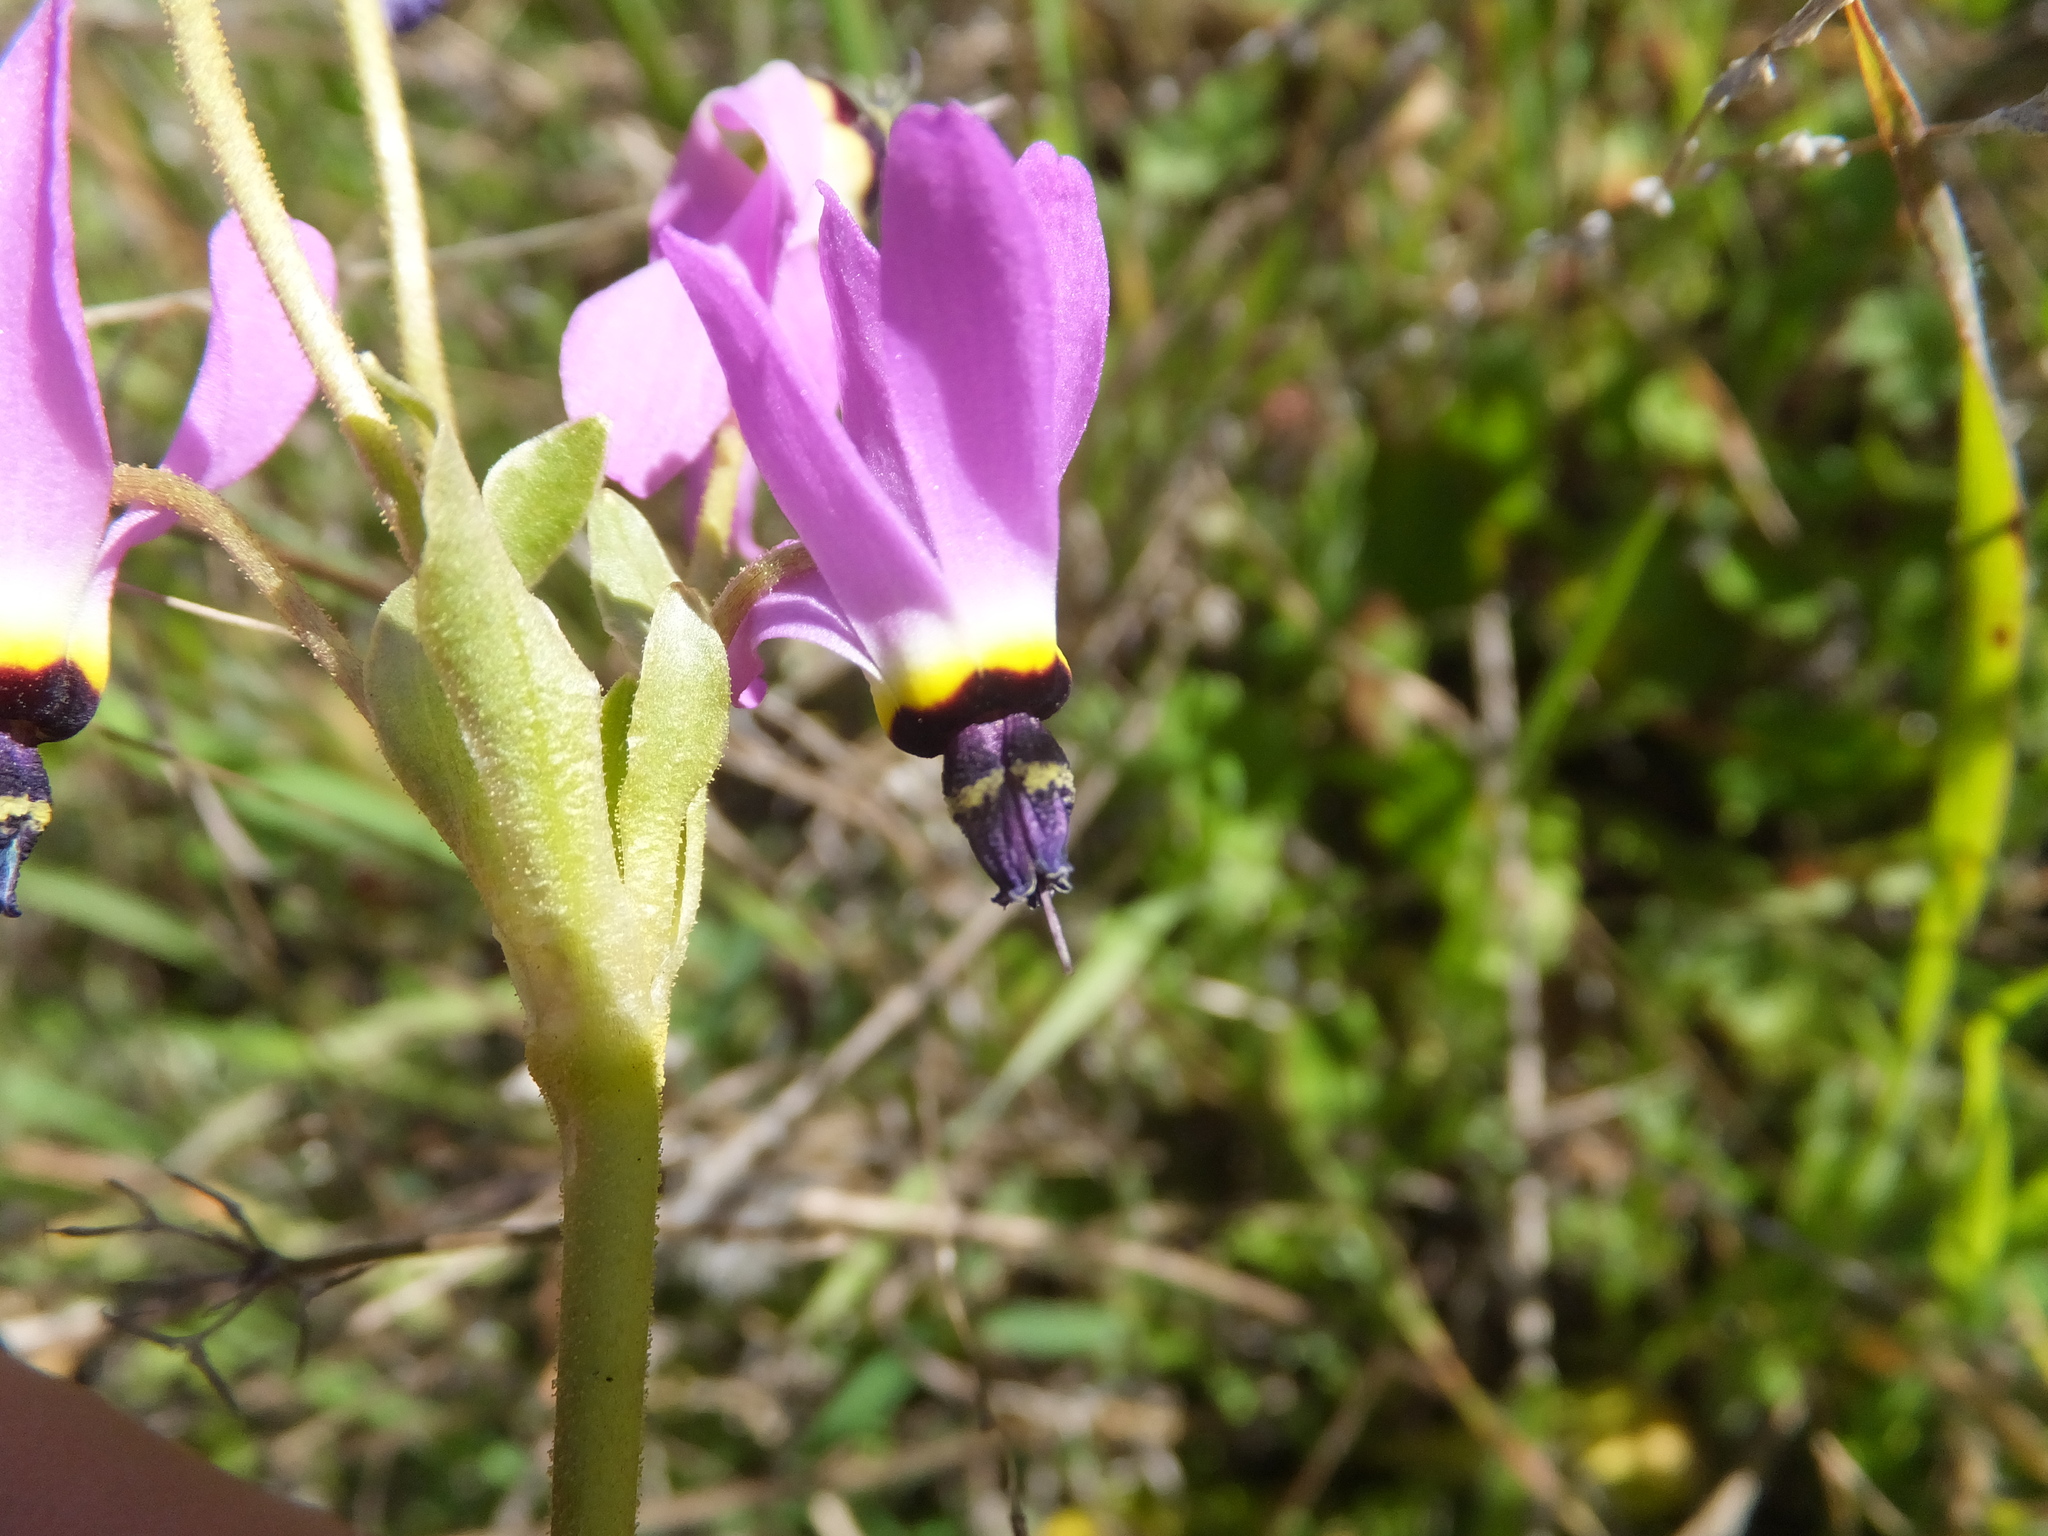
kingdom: Plantae
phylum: Tracheophyta
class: Magnoliopsida
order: Ericales
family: Primulaceae
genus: Dodecatheon
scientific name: Dodecatheon clevelandii
